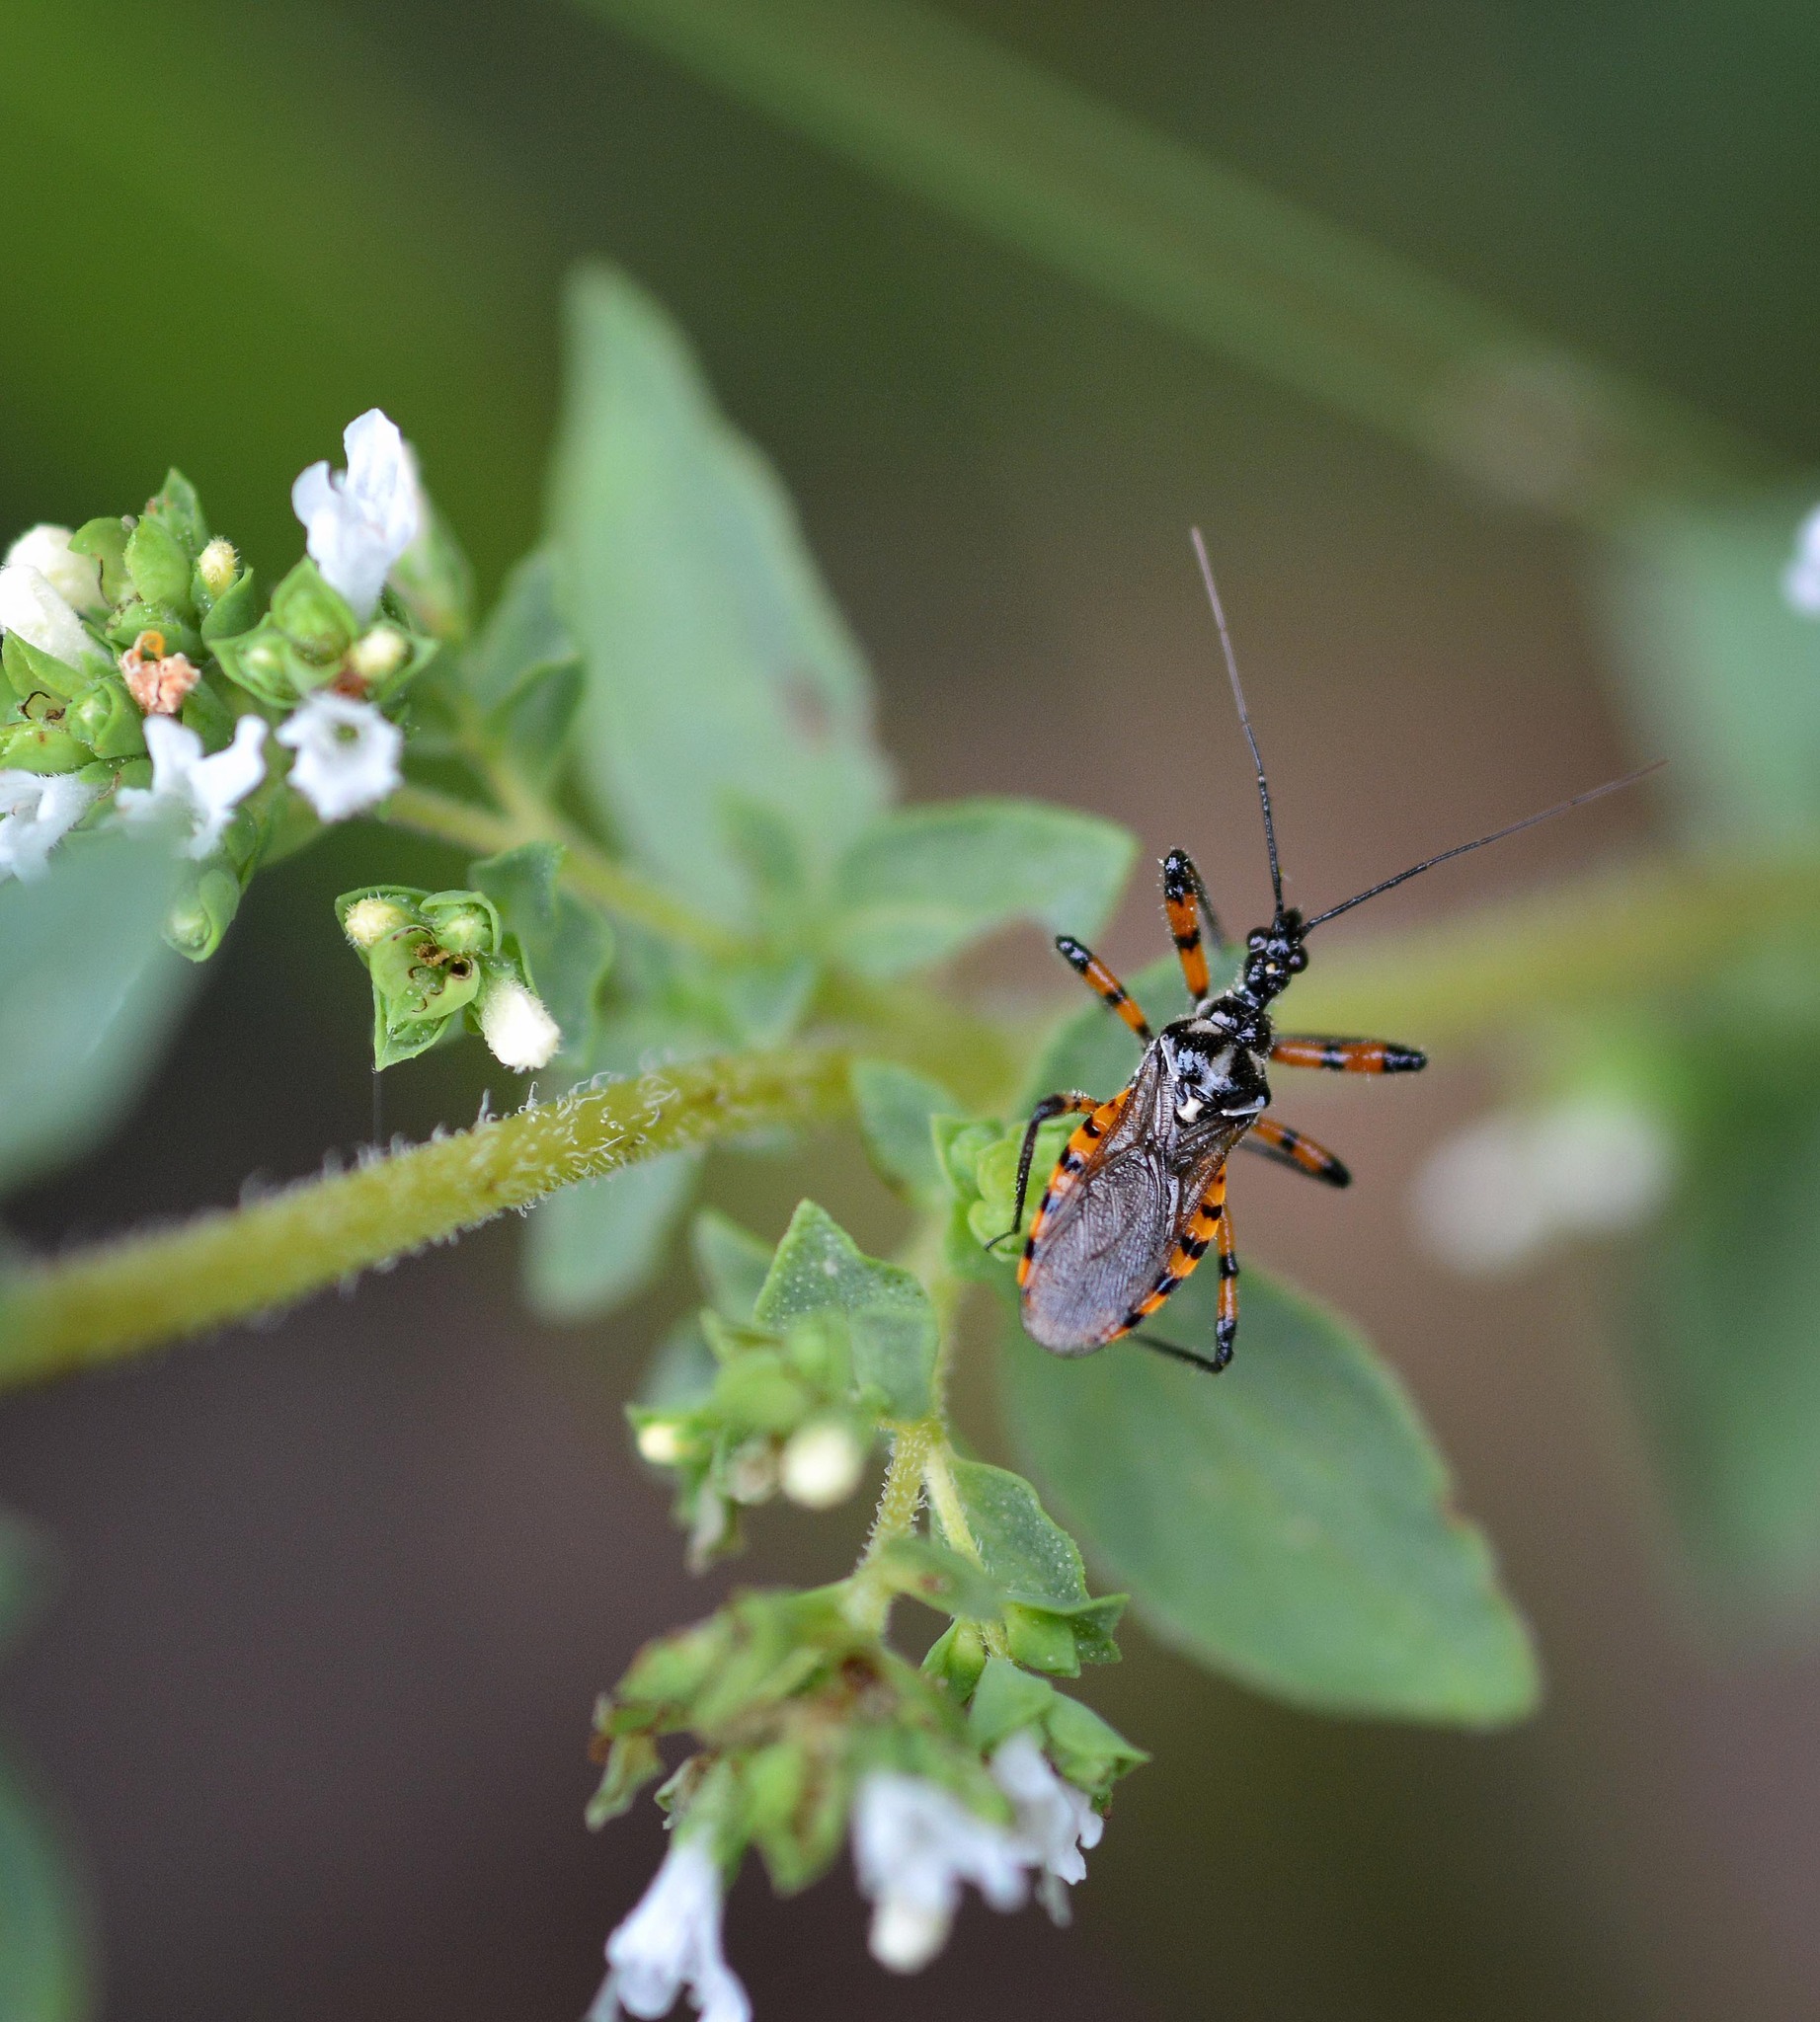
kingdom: Animalia
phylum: Arthropoda
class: Insecta
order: Hemiptera
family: Reduviidae
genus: Sphedanolestes
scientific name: Sphedanolestes pulchellus
